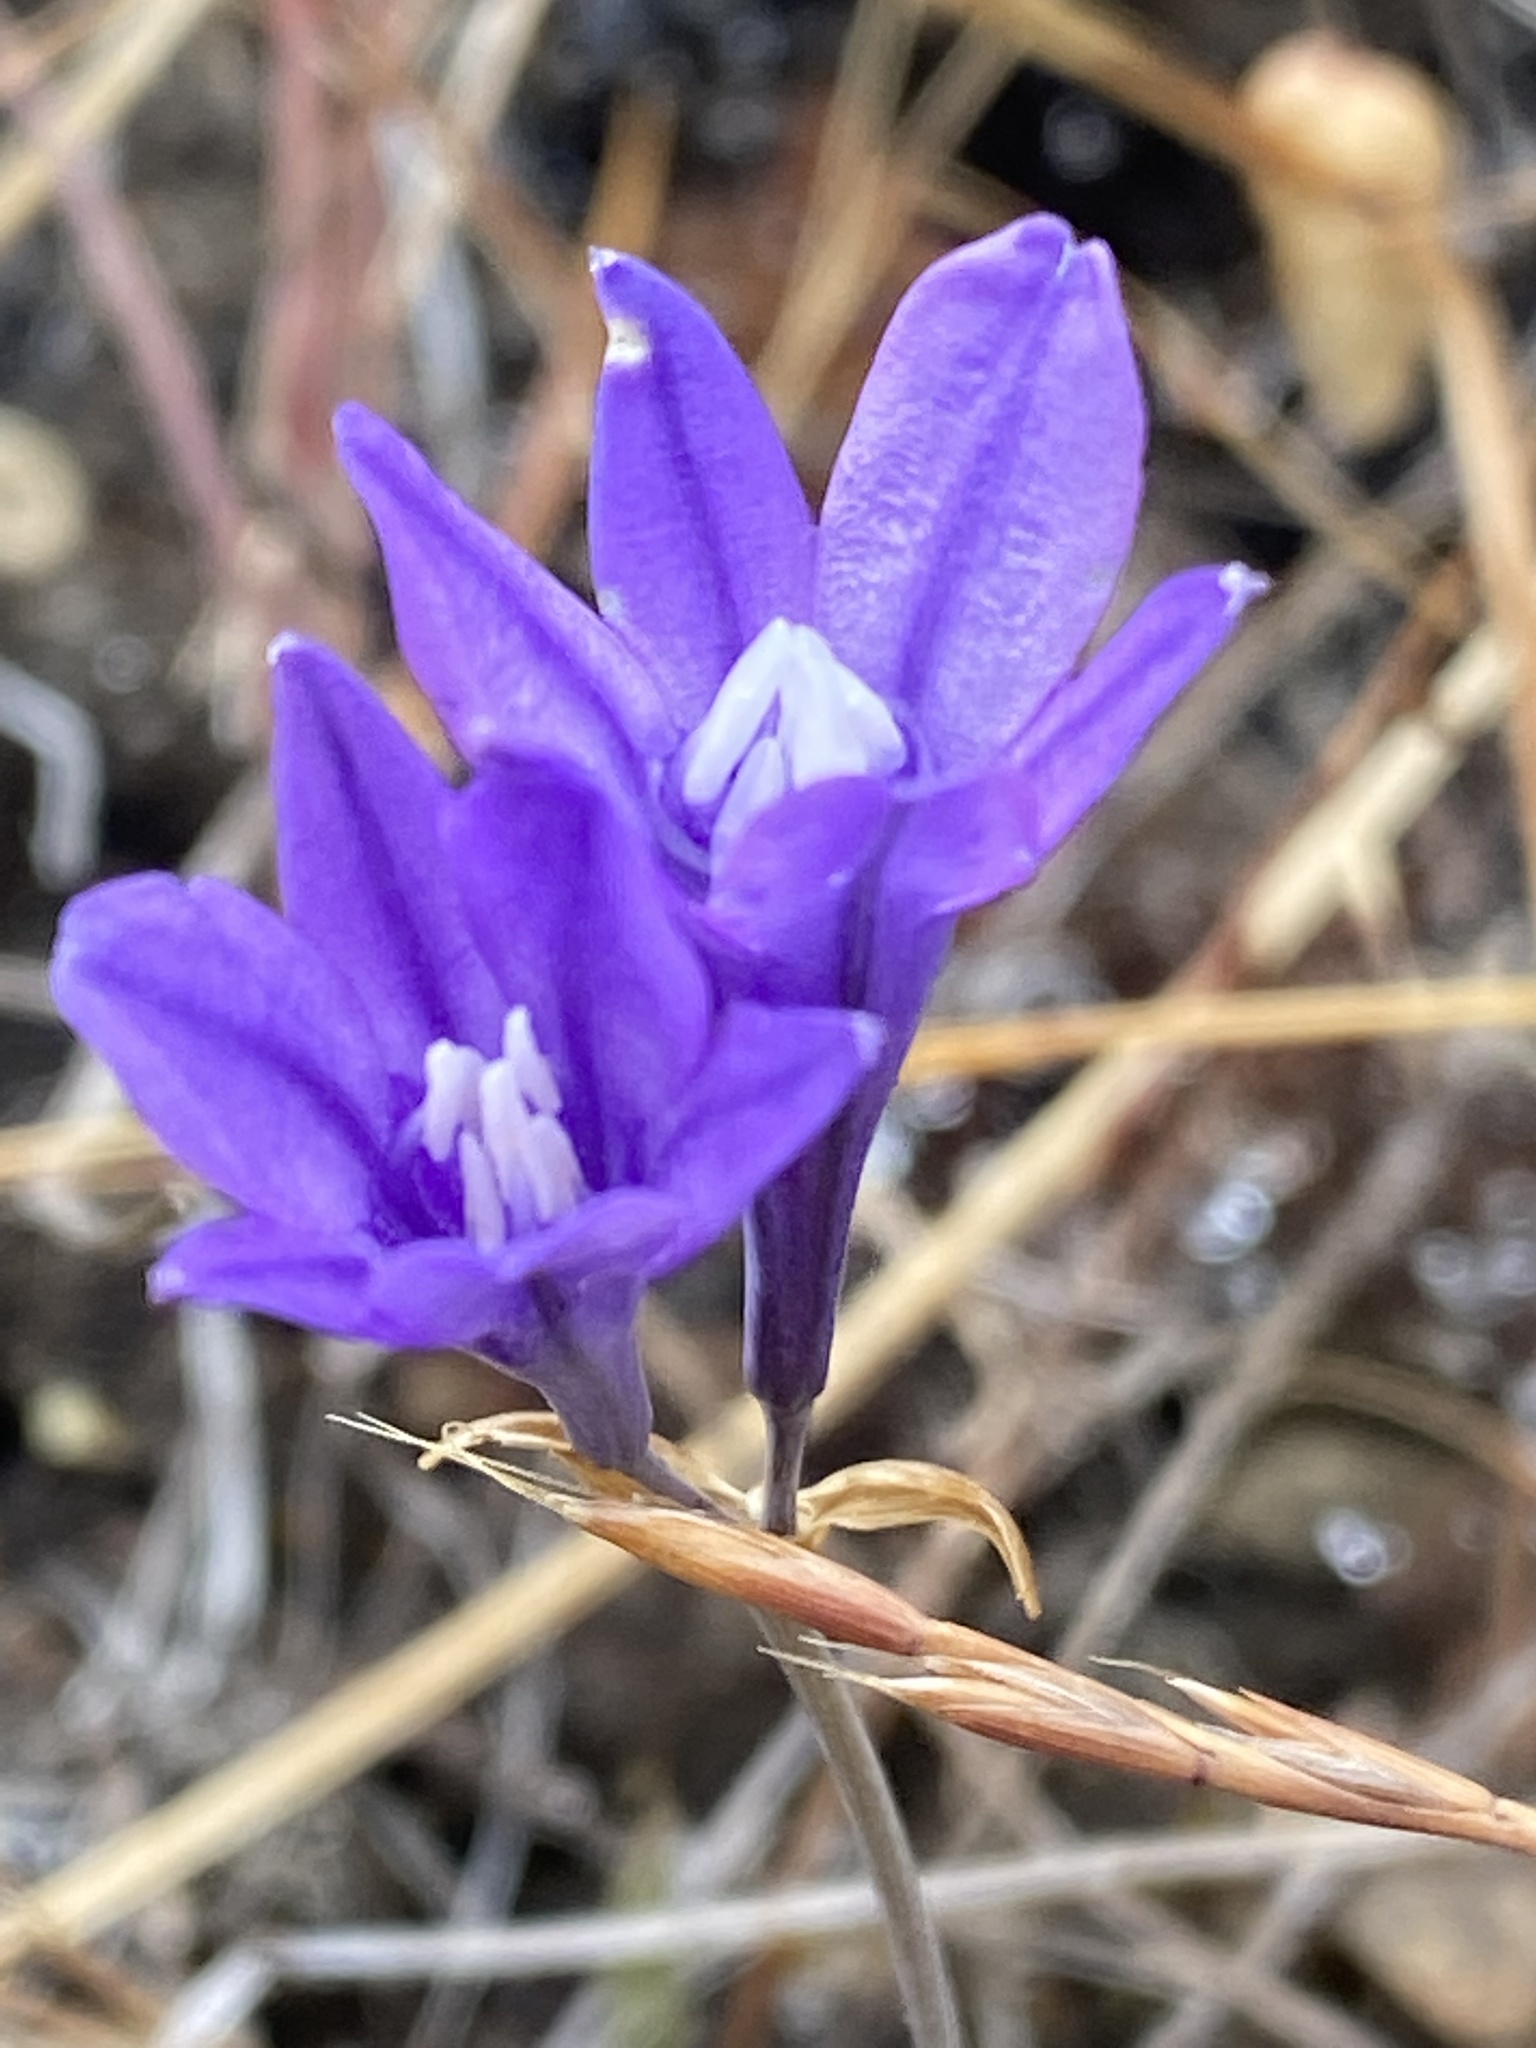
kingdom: Plantae
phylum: Tracheophyta
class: Liliopsida
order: Asparagales
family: Asparagaceae
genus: Triteleia
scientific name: Triteleia laxa
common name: Triplet-lily
